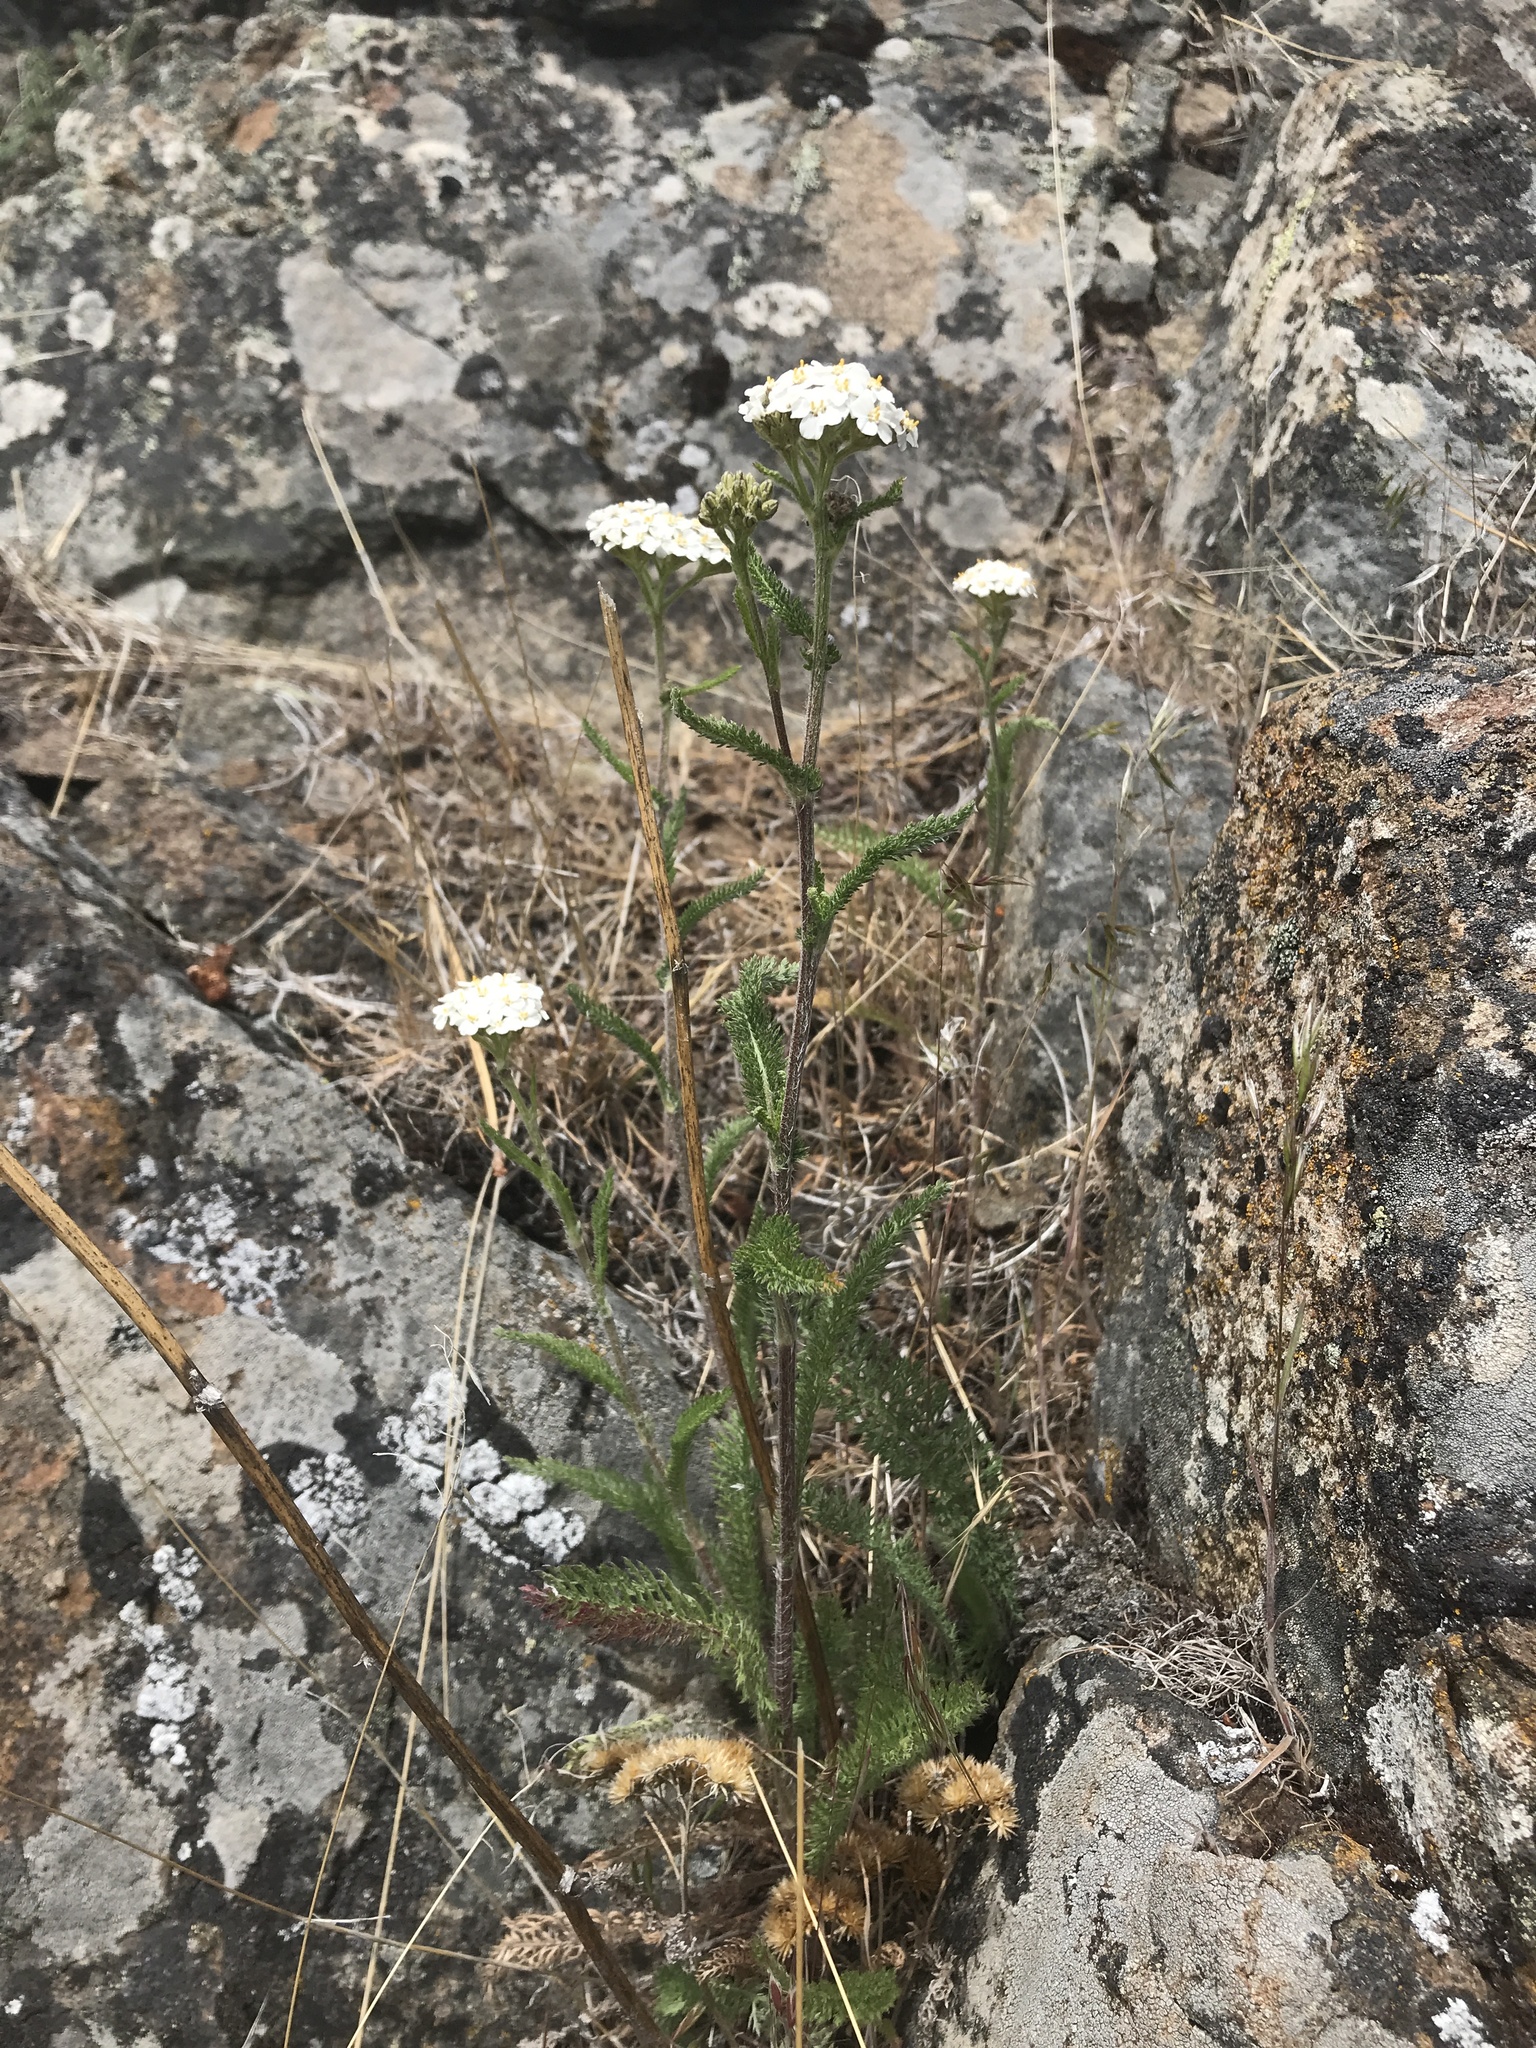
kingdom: Plantae
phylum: Tracheophyta
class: Magnoliopsida
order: Asterales
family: Asteraceae
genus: Achillea
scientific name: Achillea millefolium
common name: Yarrow
